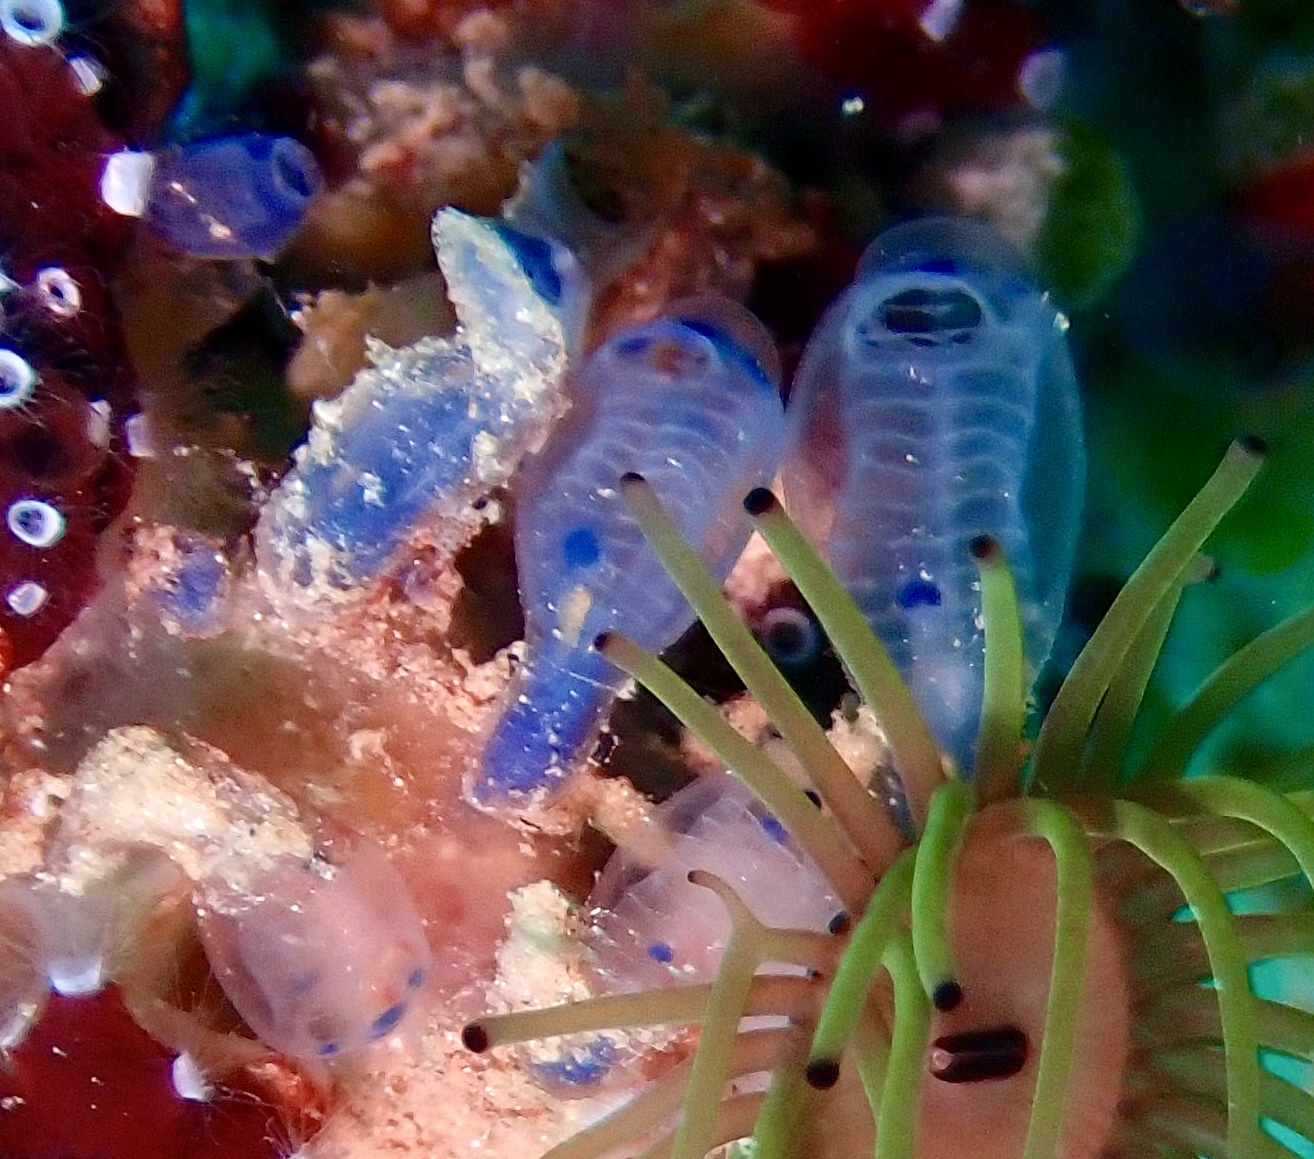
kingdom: Animalia
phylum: Chordata
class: Ascidiacea
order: Aplousobranchia
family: Clavelinidae
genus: Clavelina
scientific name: Clavelina moluccensis
